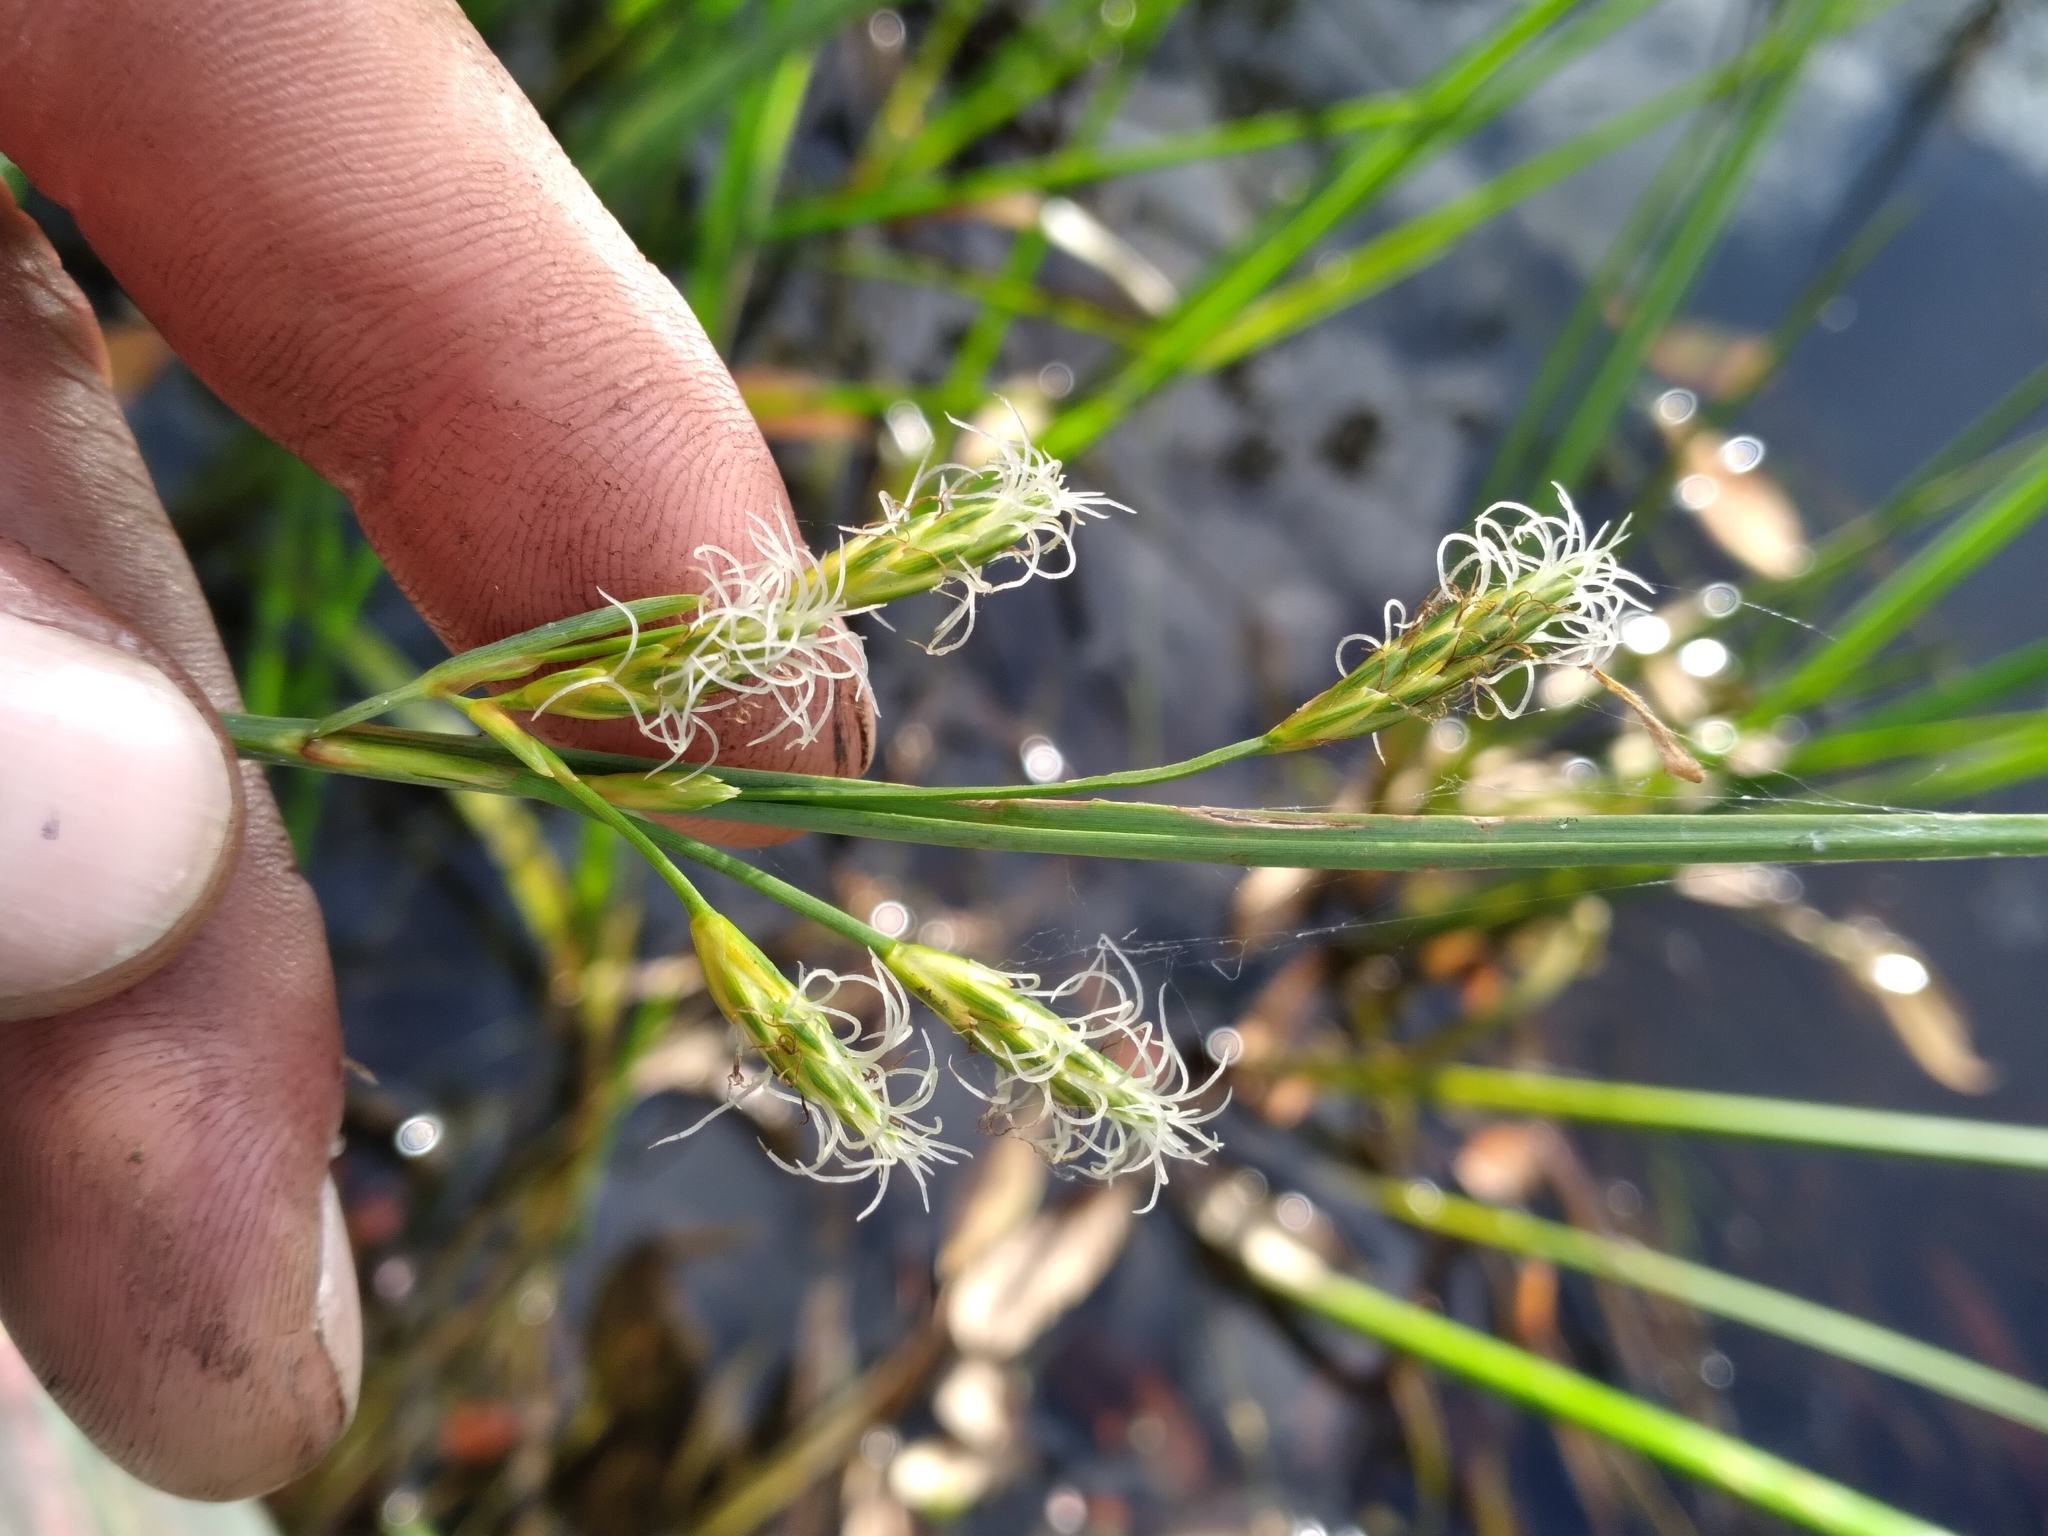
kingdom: Plantae
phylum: Tracheophyta
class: Liliopsida
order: Poales
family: Cyperaceae
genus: Schoenoplectus
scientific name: Schoenoplectus etuberculatus
